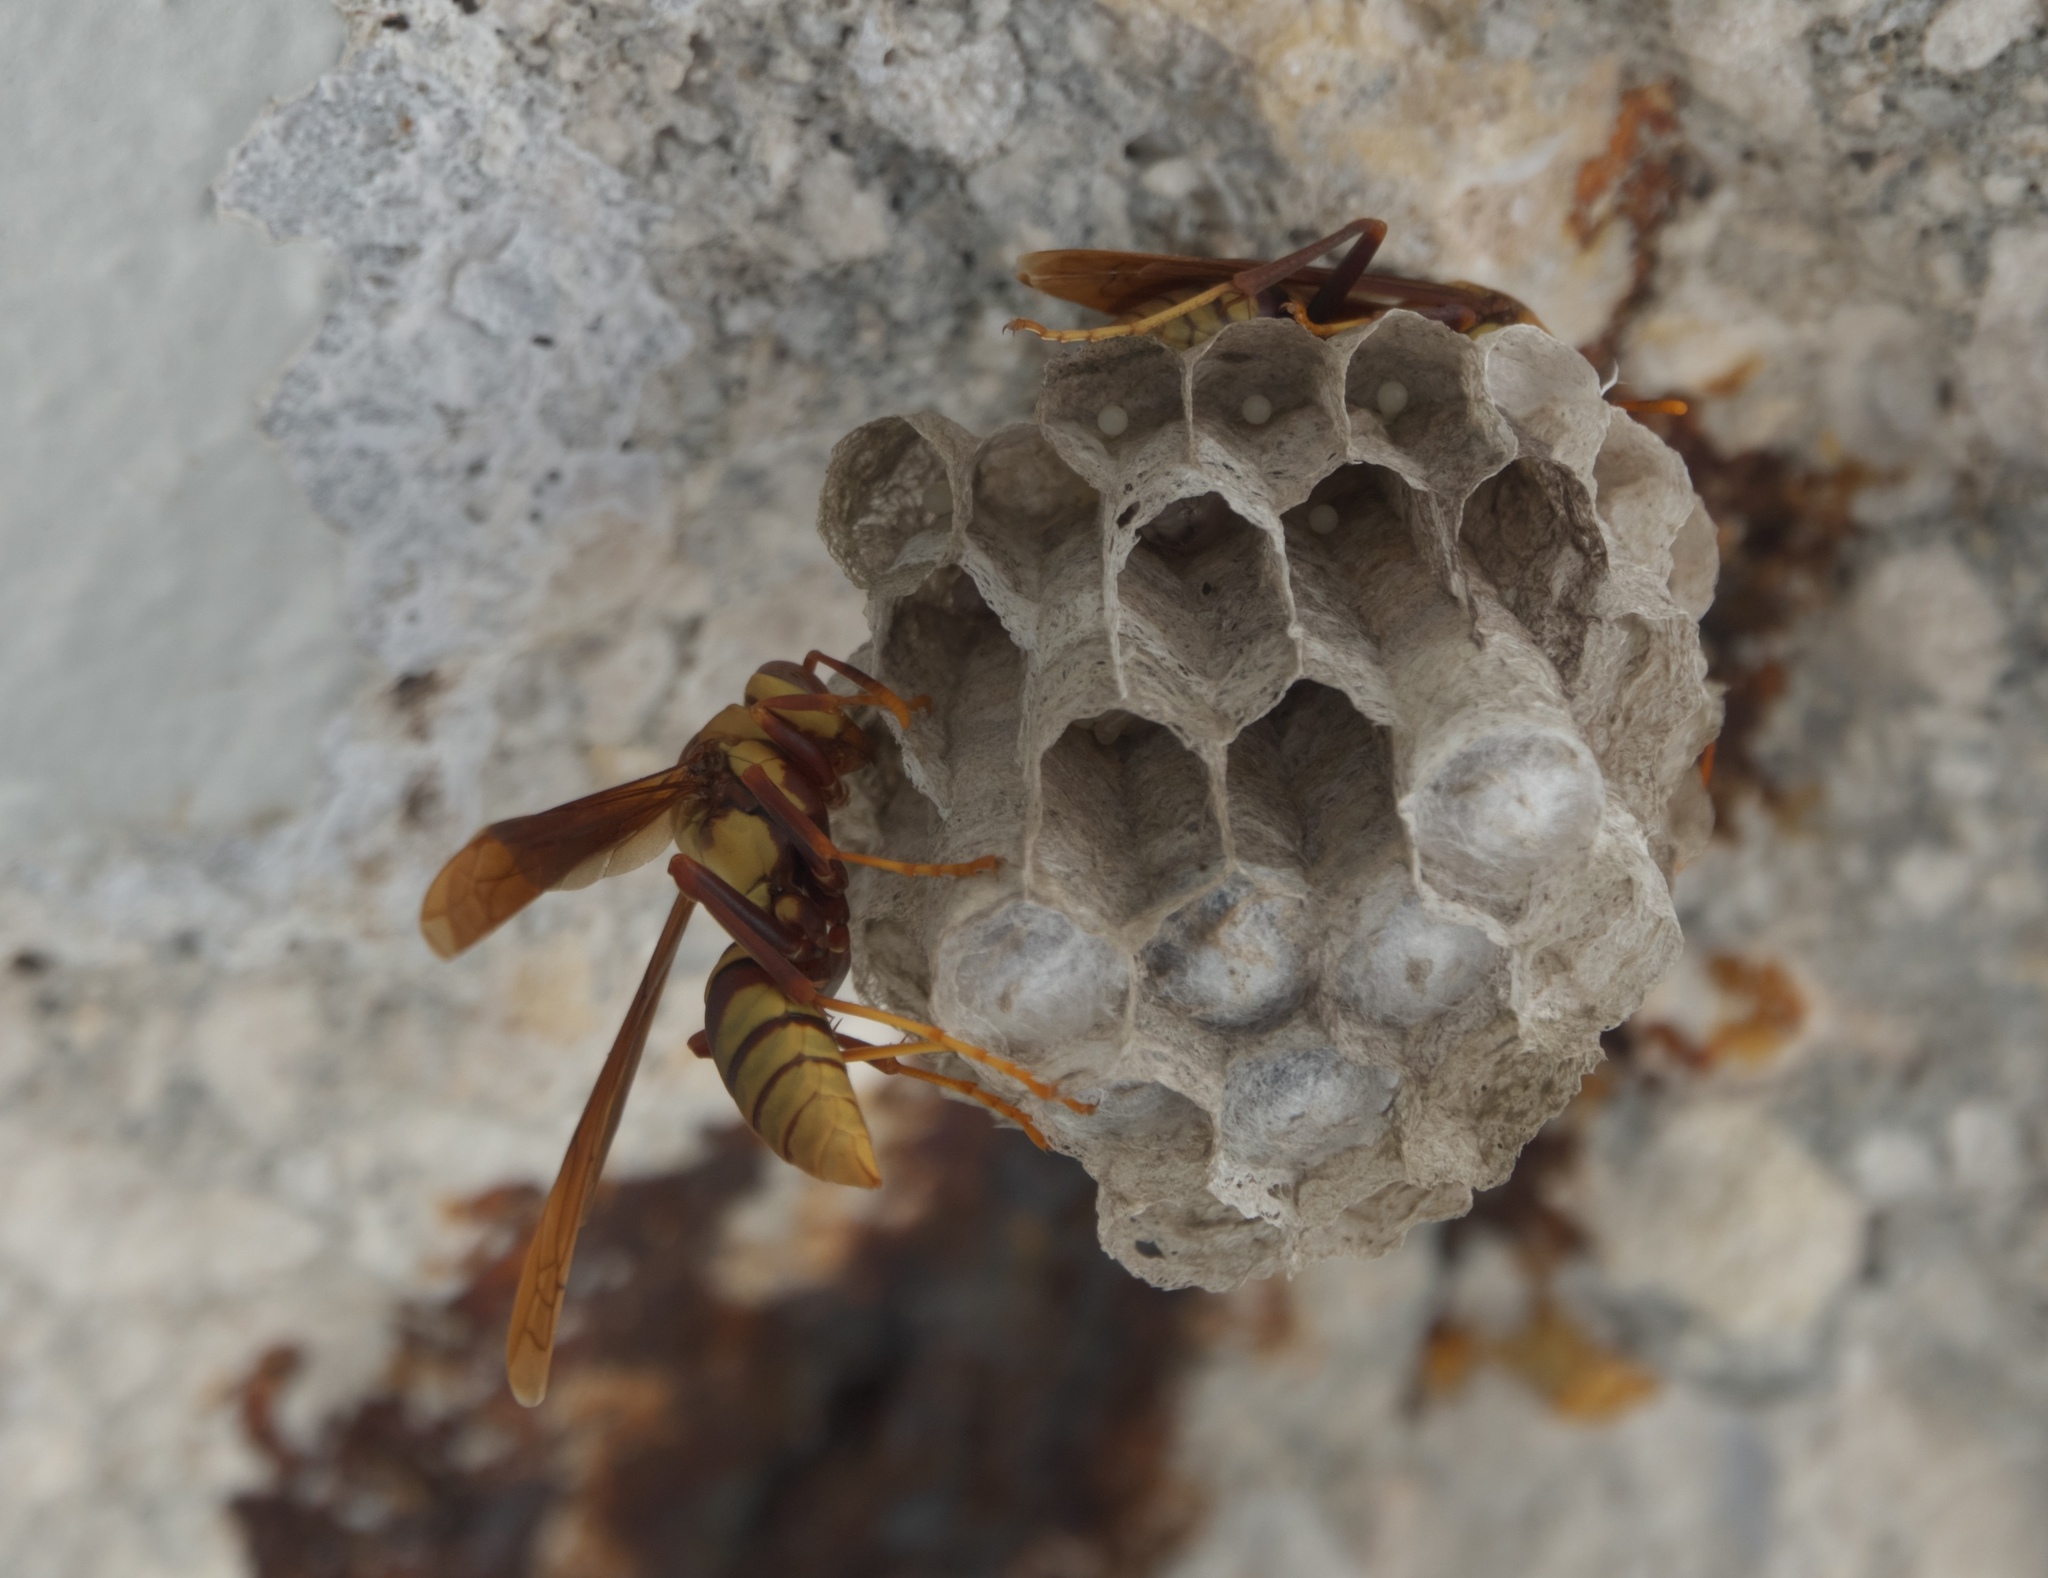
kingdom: Animalia
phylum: Arthropoda
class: Insecta
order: Hymenoptera
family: Eumenidae
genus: Polistes
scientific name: Polistes major
